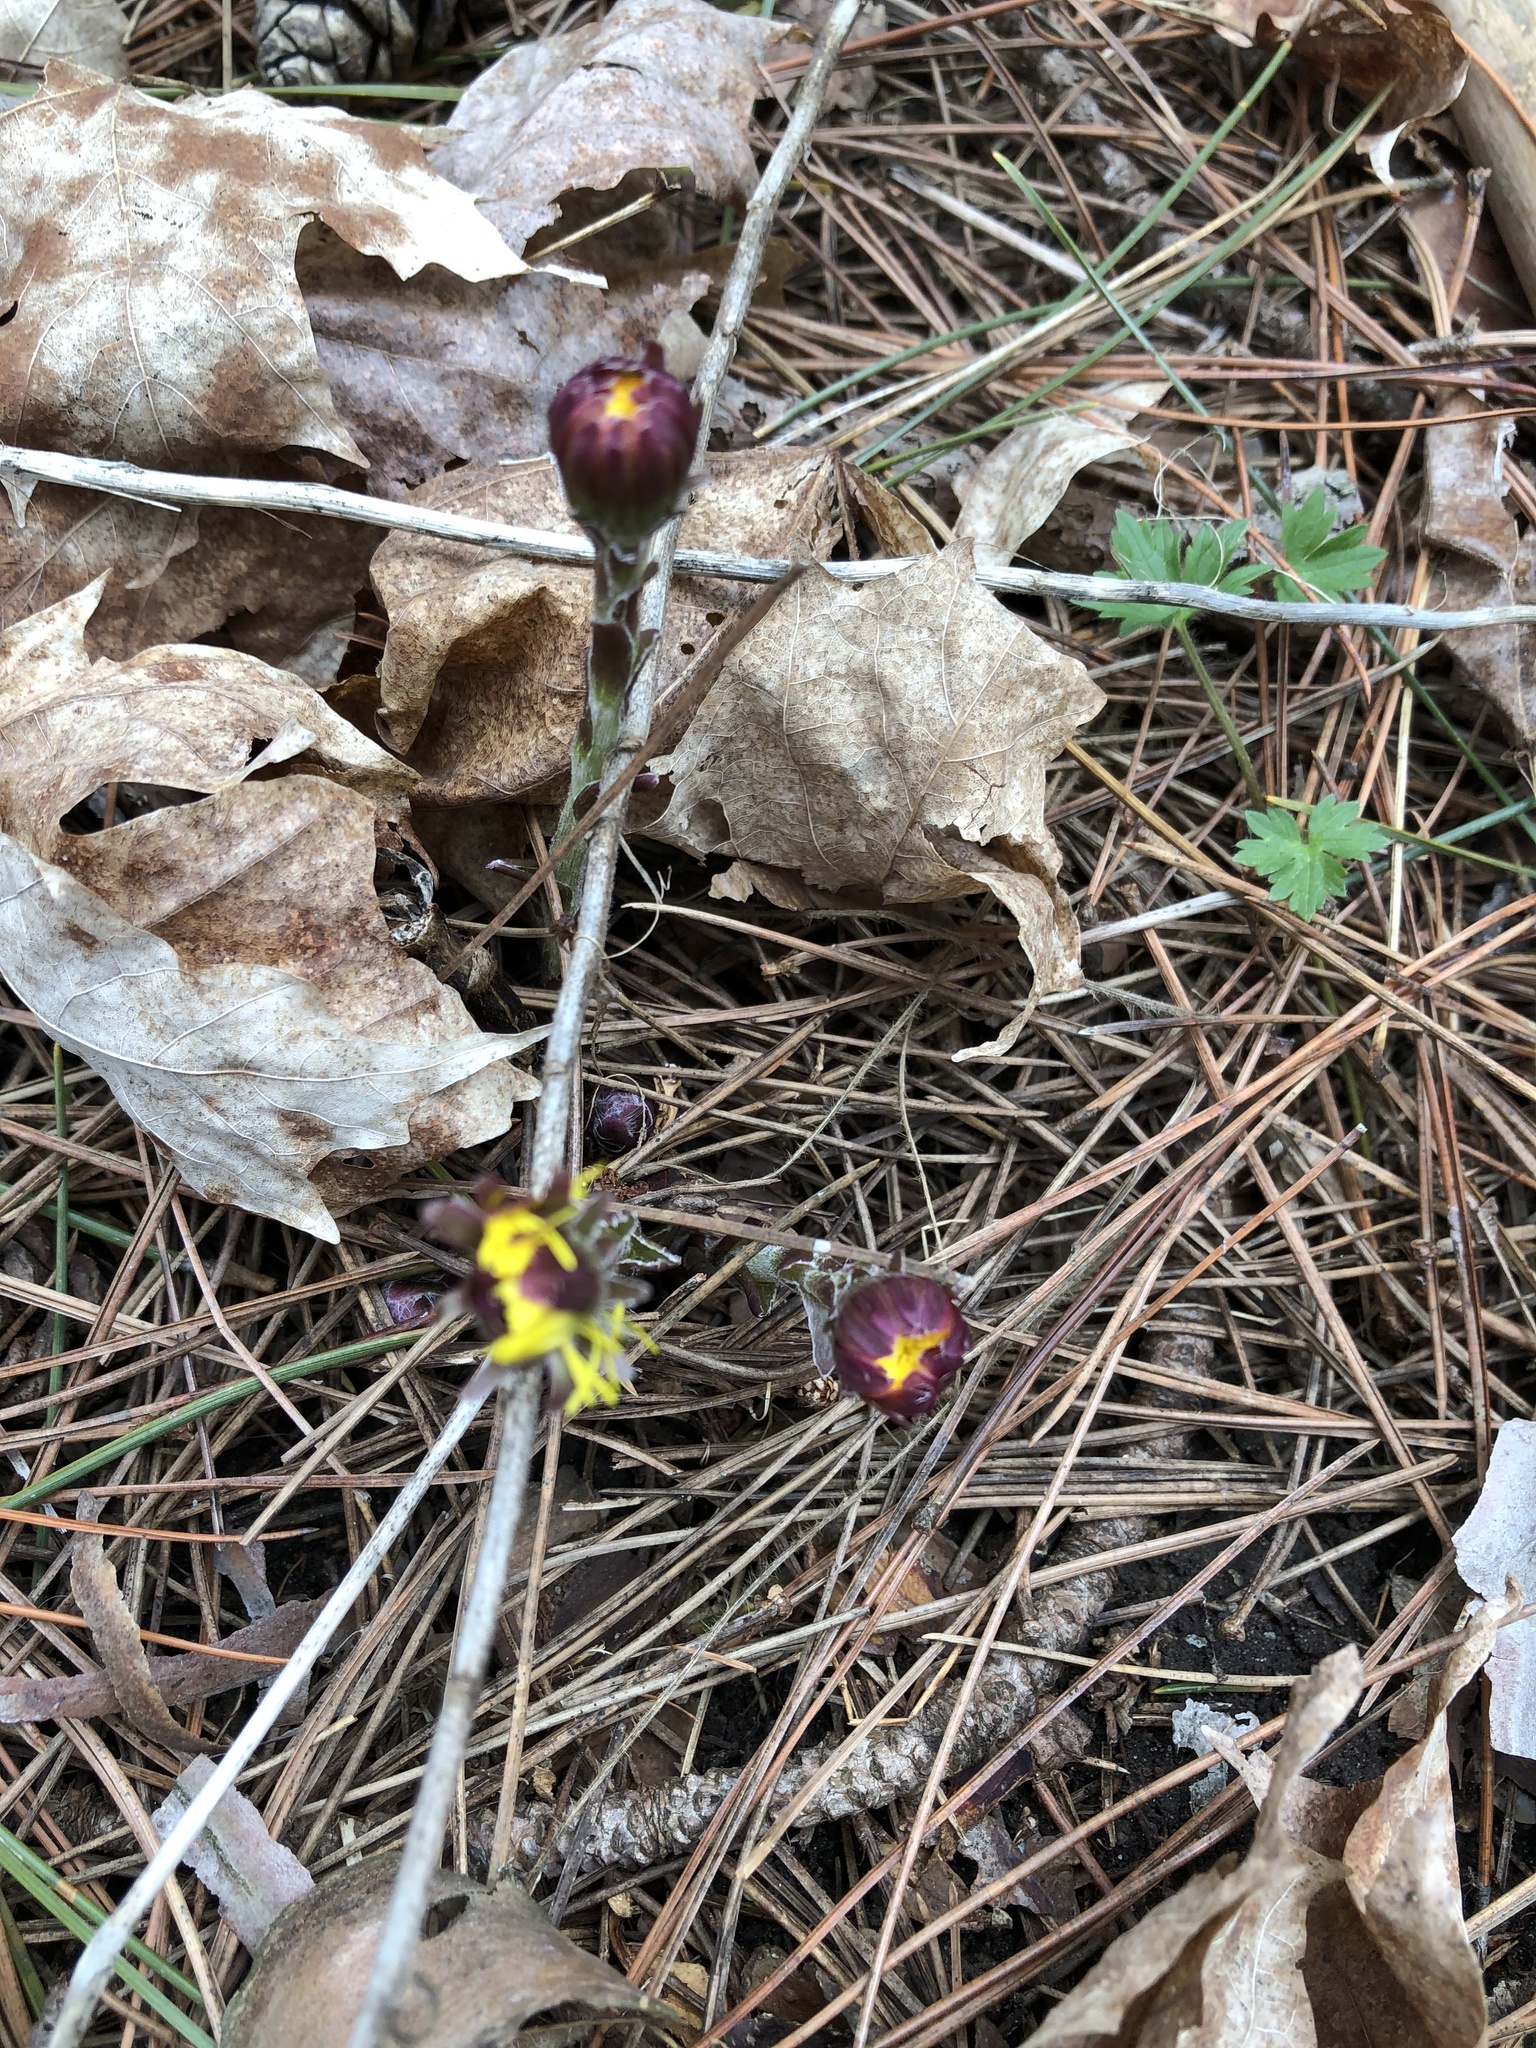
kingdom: Plantae
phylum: Tracheophyta
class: Magnoliopsida
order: Asterales
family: Asteraceae
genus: Tussilago
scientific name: Tussilago farfara
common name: Coltsfoot
